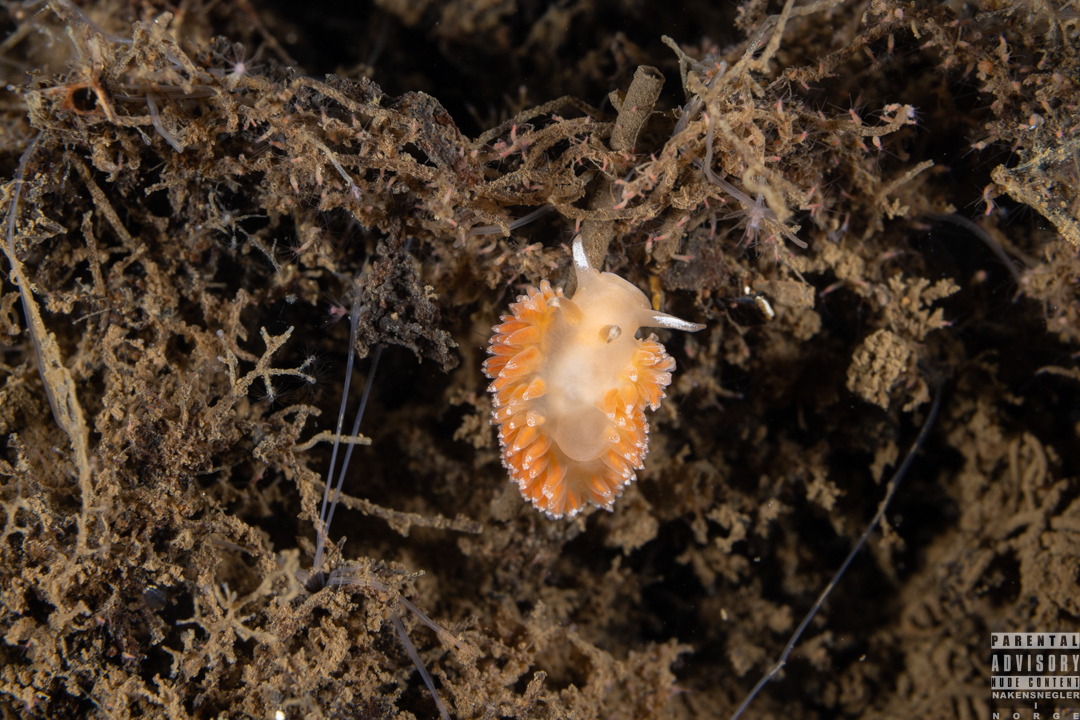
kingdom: Animalia
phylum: Mollusca
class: Gastropoda
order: Nudibranchia
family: Coryphellidae
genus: Coryphella
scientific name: Coryphella borealis
